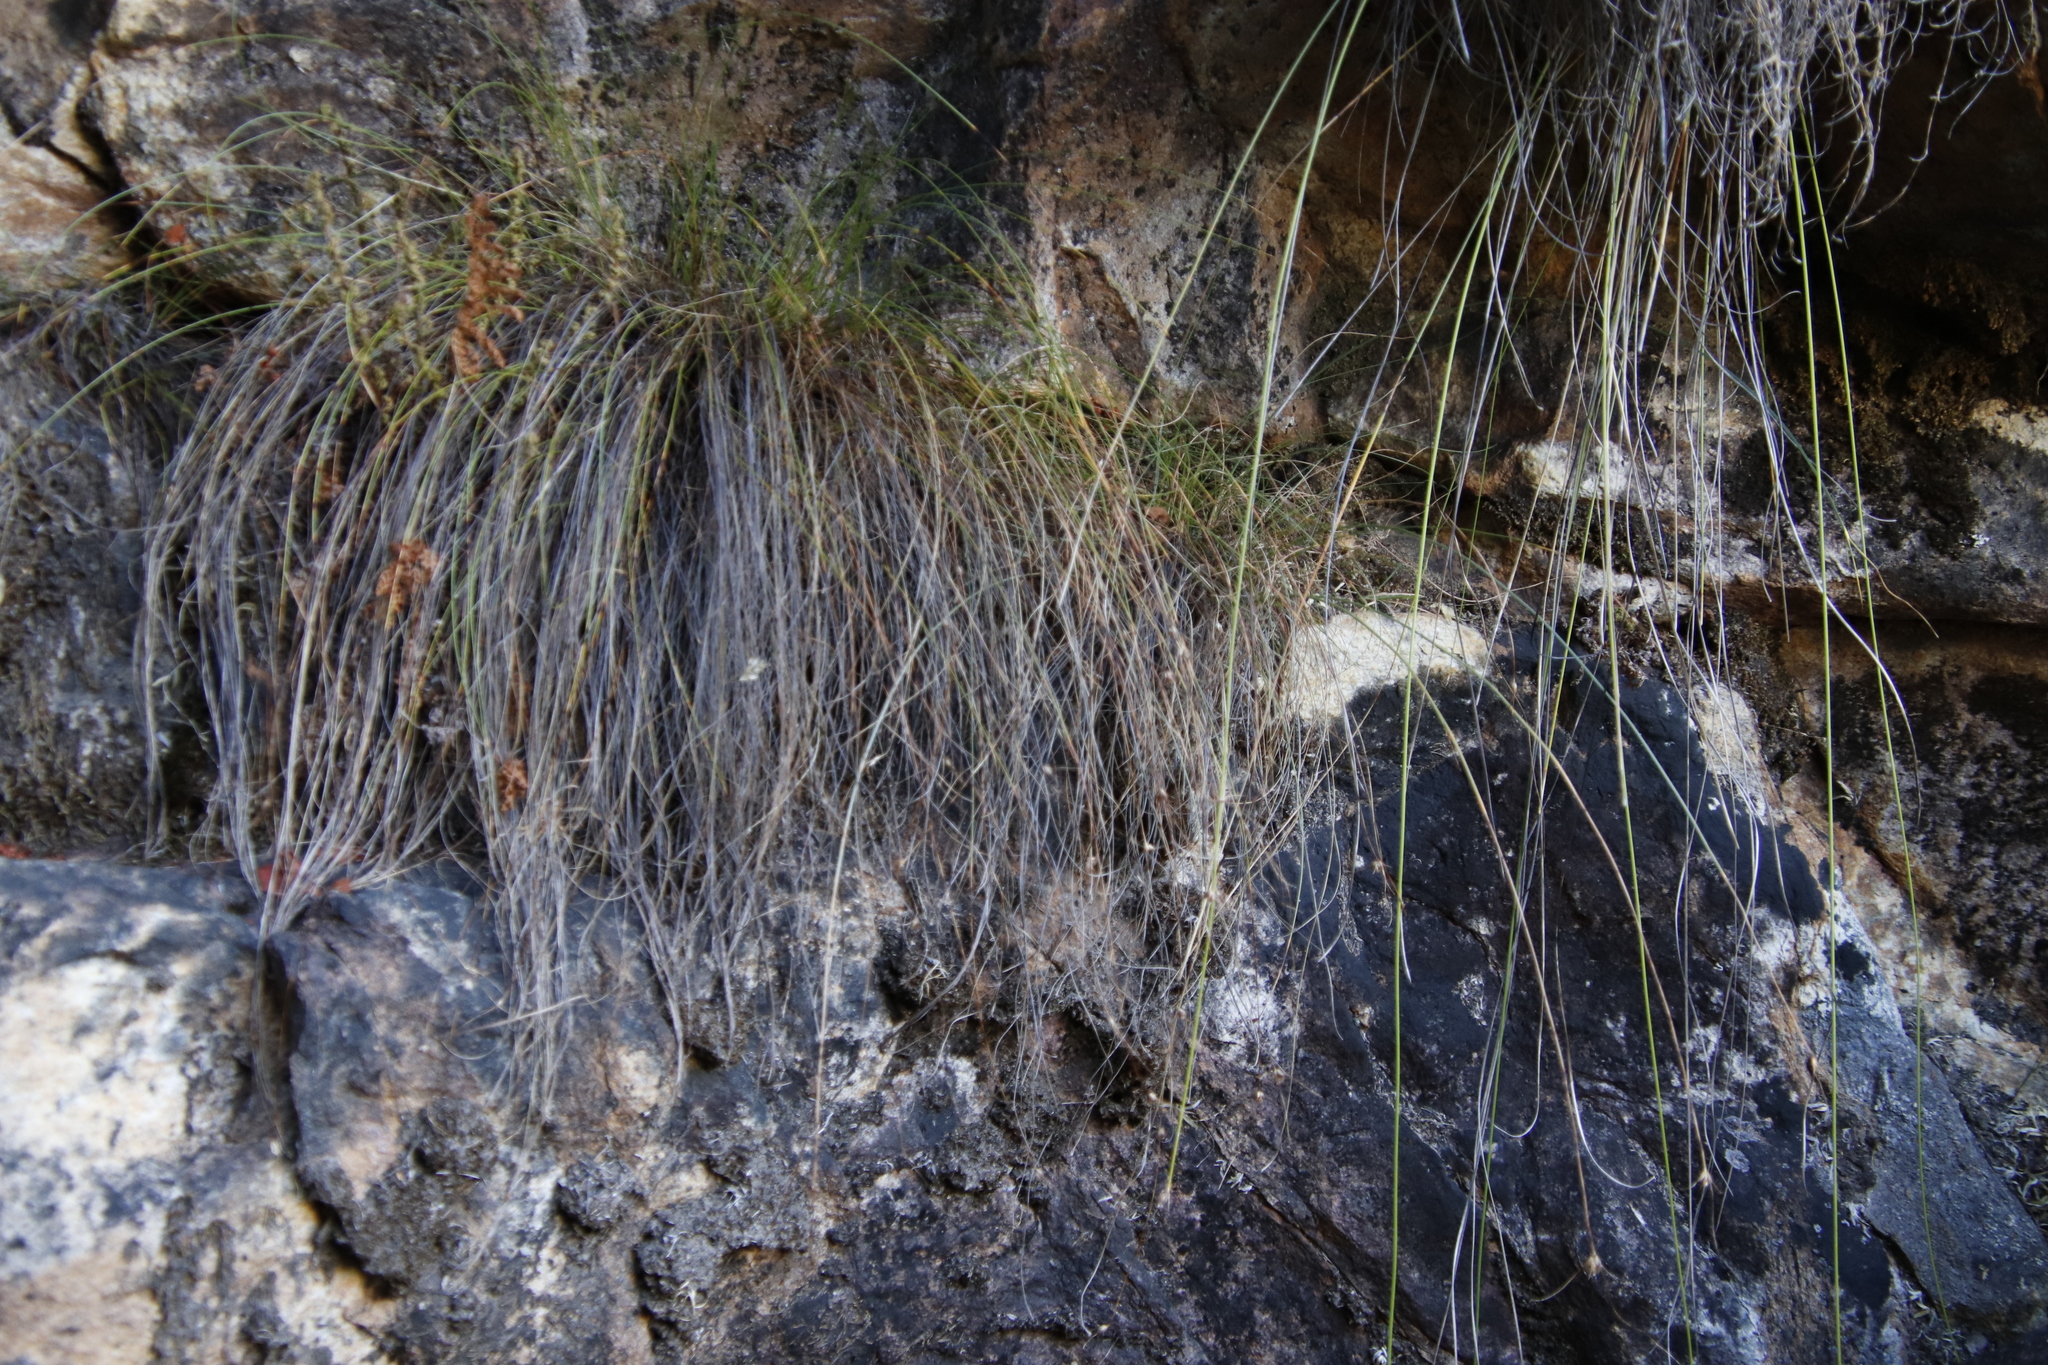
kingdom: Plantae
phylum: Tracheophyta
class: Liliopsida
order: Poales
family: Cyperaceae
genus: Ficinia
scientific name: Ficinia brevifolia
